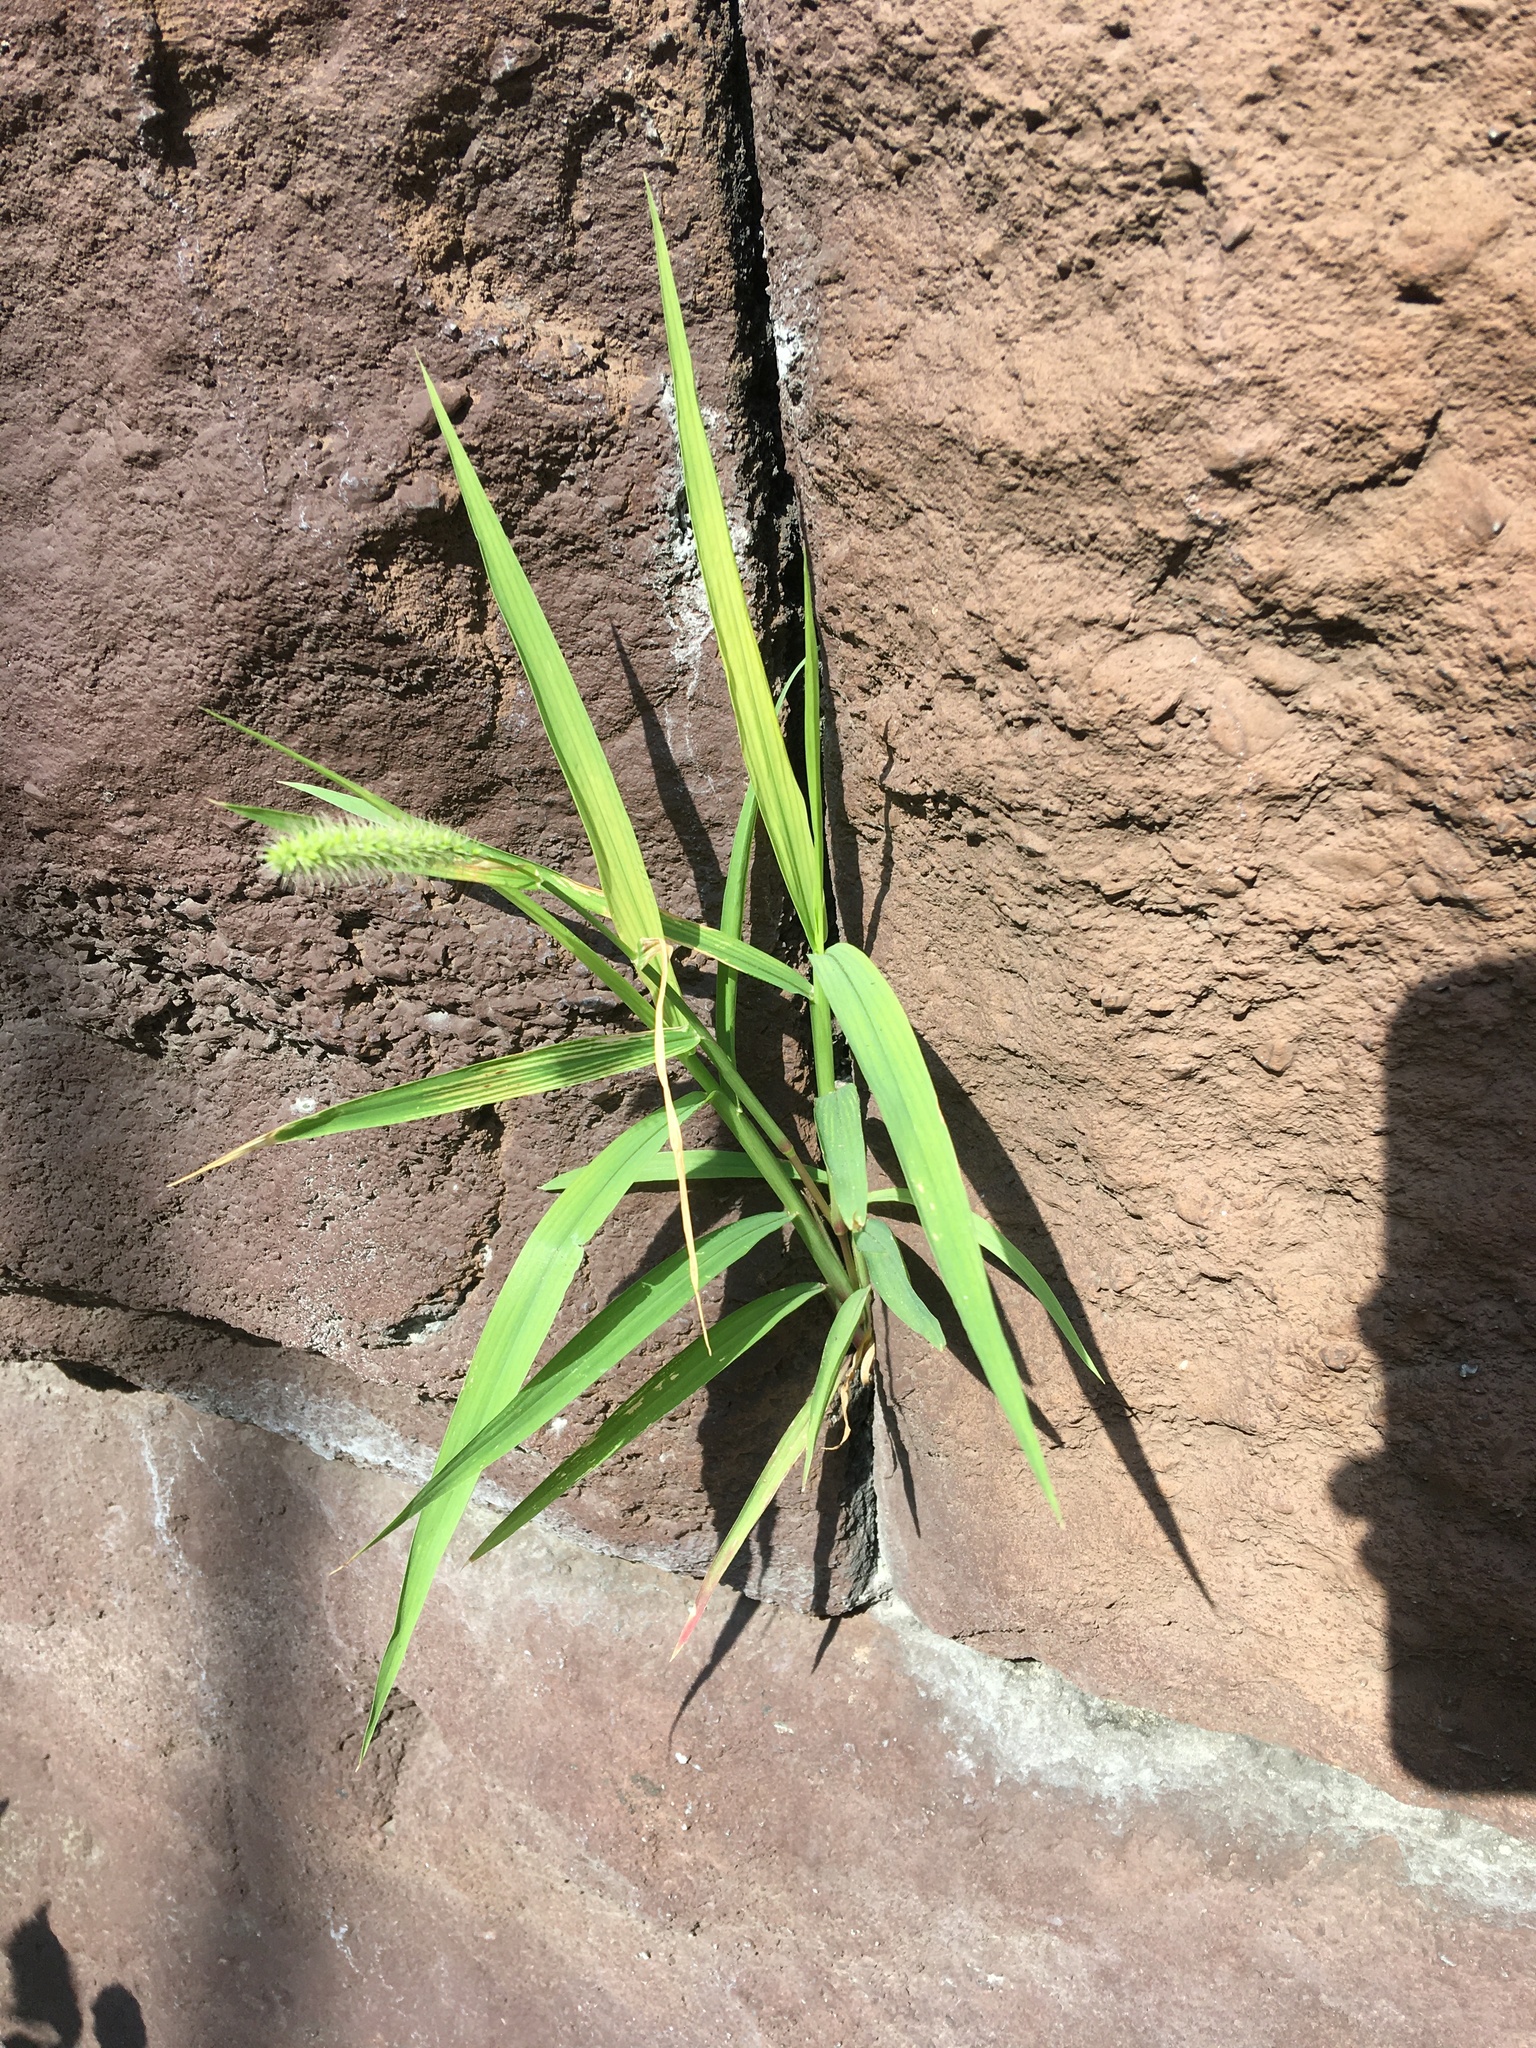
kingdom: Plantae
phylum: Tracheophyta
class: Liliopsida
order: Poales
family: Poaceae
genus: Setaria
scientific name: Setaria viridis
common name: Green bristlegrass
